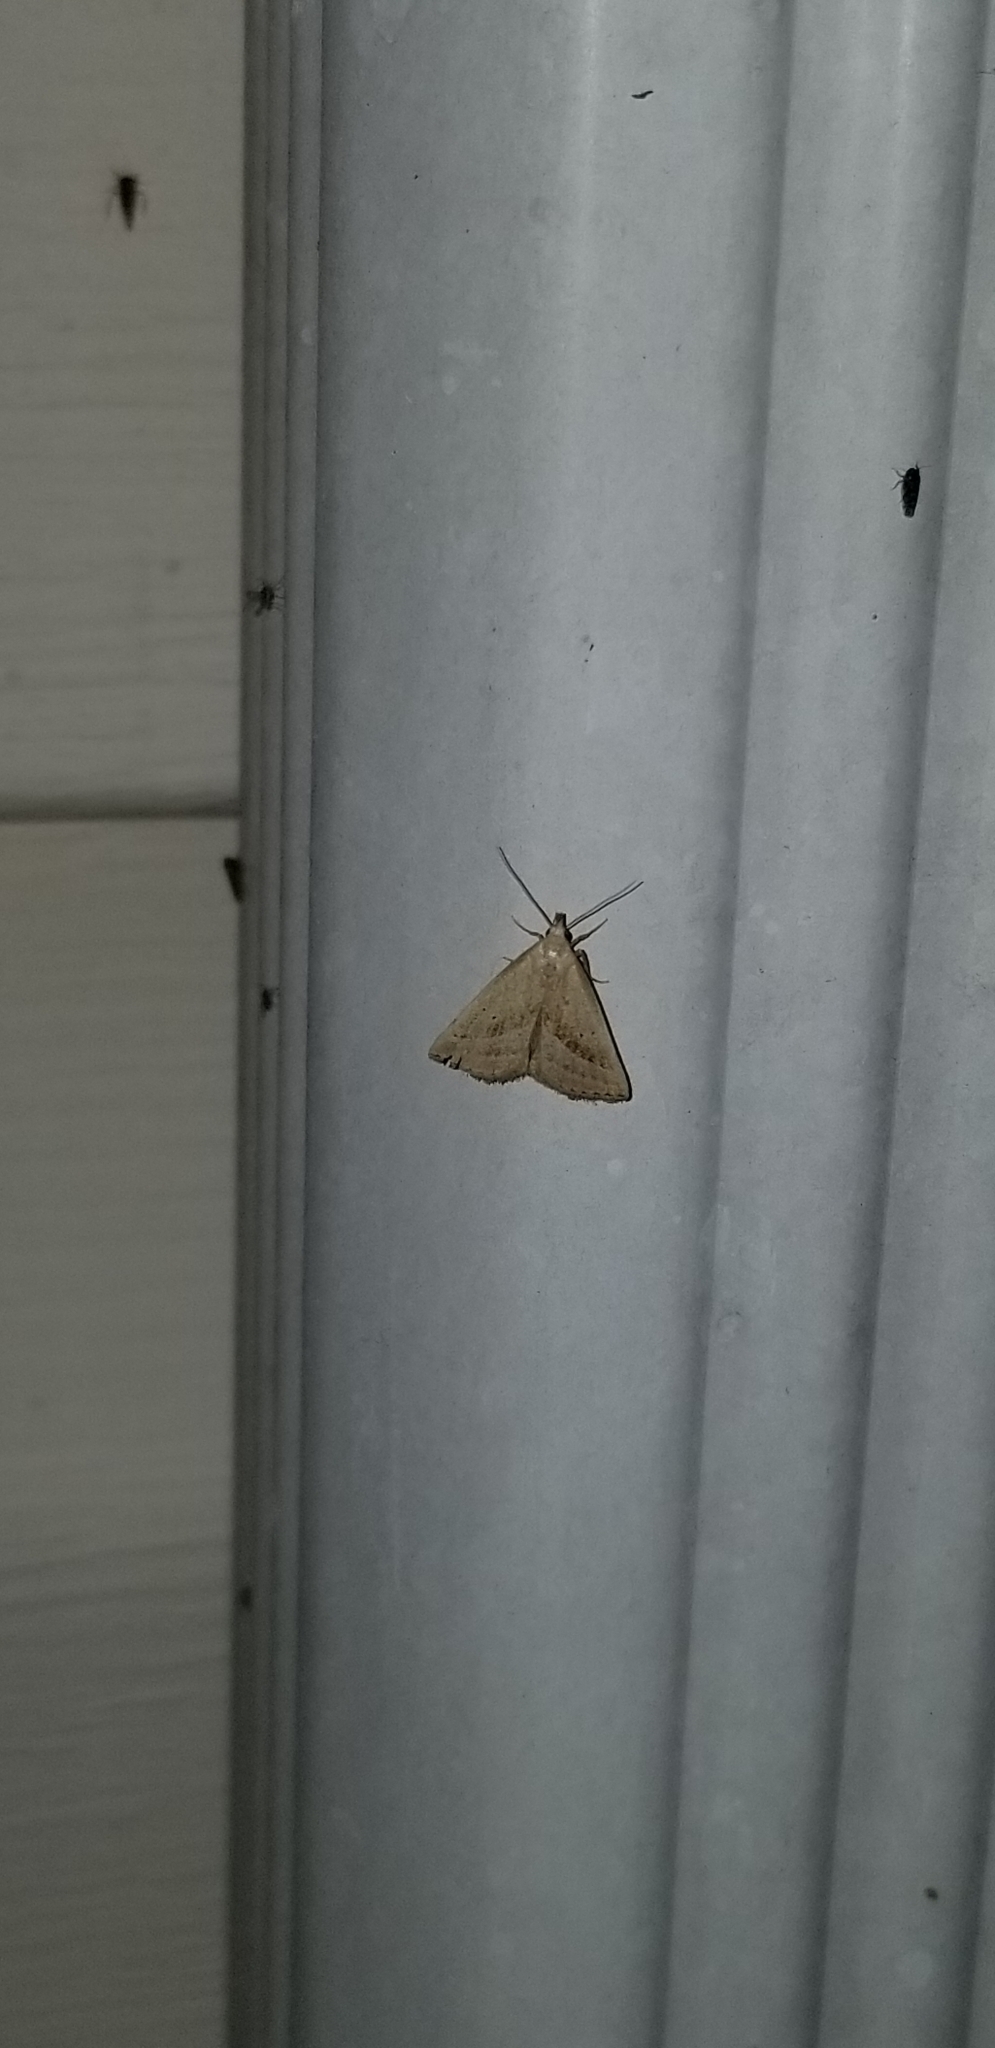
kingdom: Animalia
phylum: Arthropoda
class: Insecta
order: Lepidoptera
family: Erebidae
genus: Macrochilo
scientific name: Macrochilo hypocritalis
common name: Twin-dotted owlet
